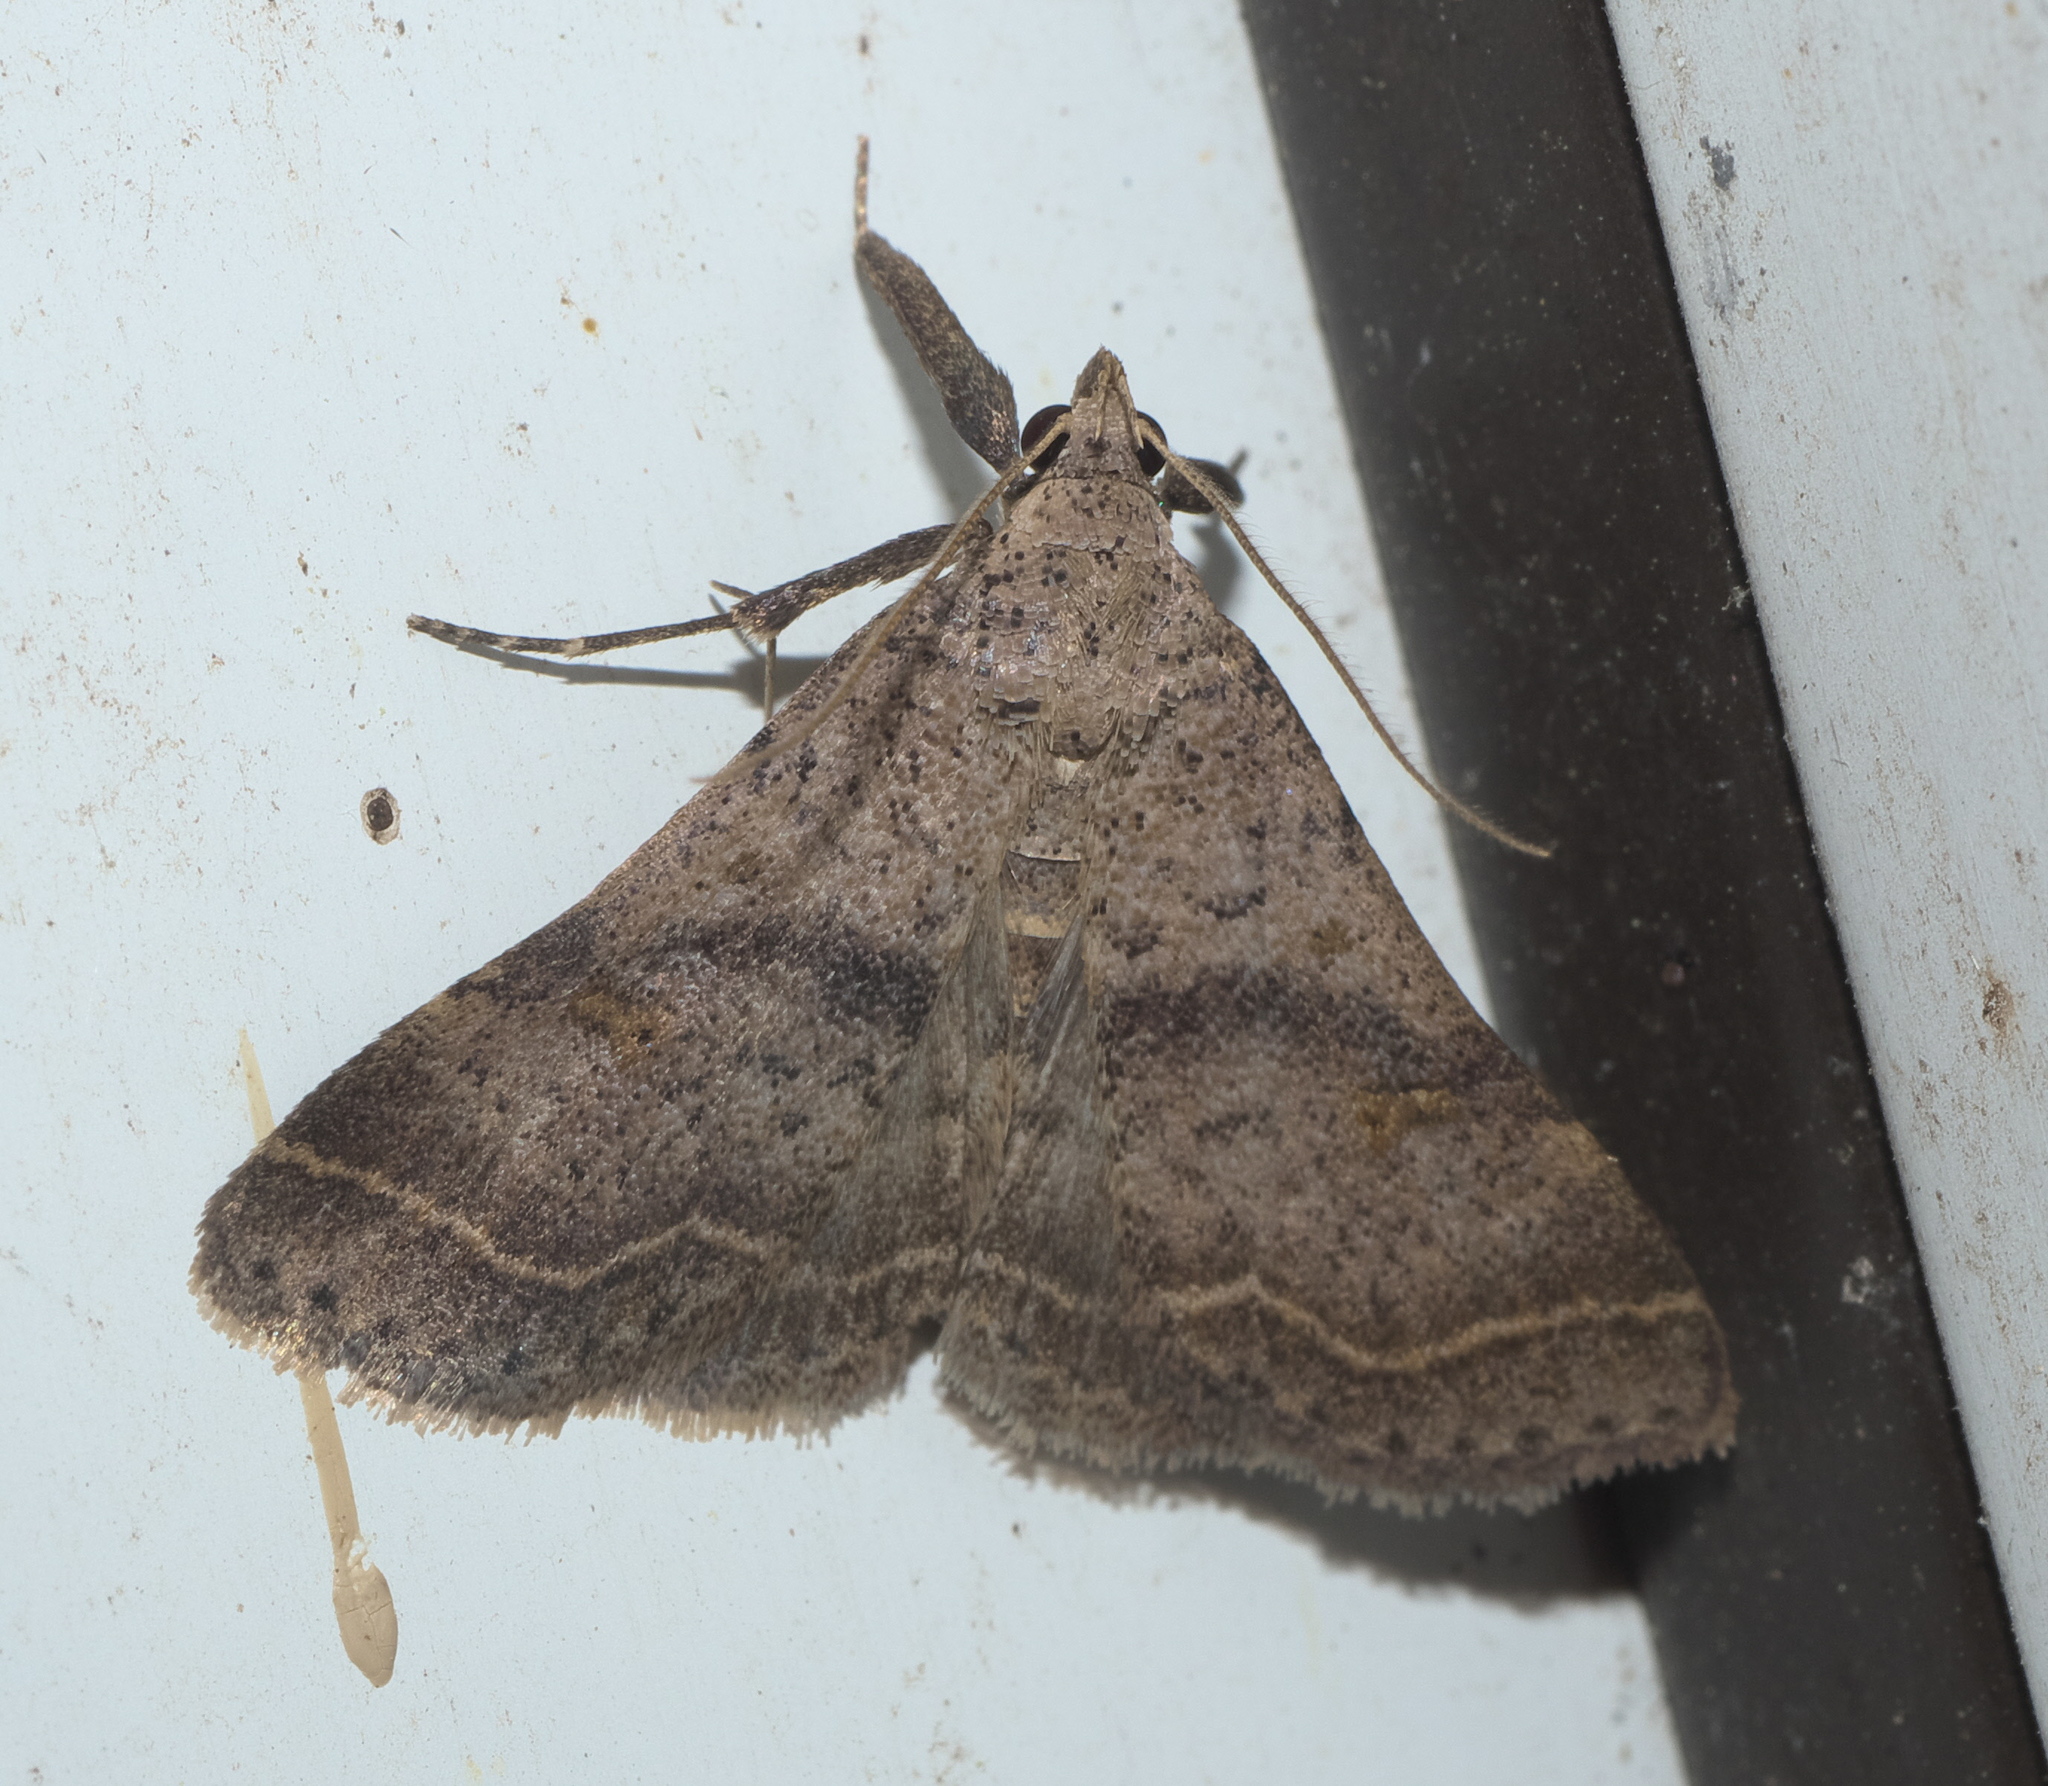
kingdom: Animalia
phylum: Arthropoda
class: Insecta
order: Lepidoptera
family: Erebidae
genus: Bleptina
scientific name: Bleptina caradrinalis
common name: Bent-winged owlet
